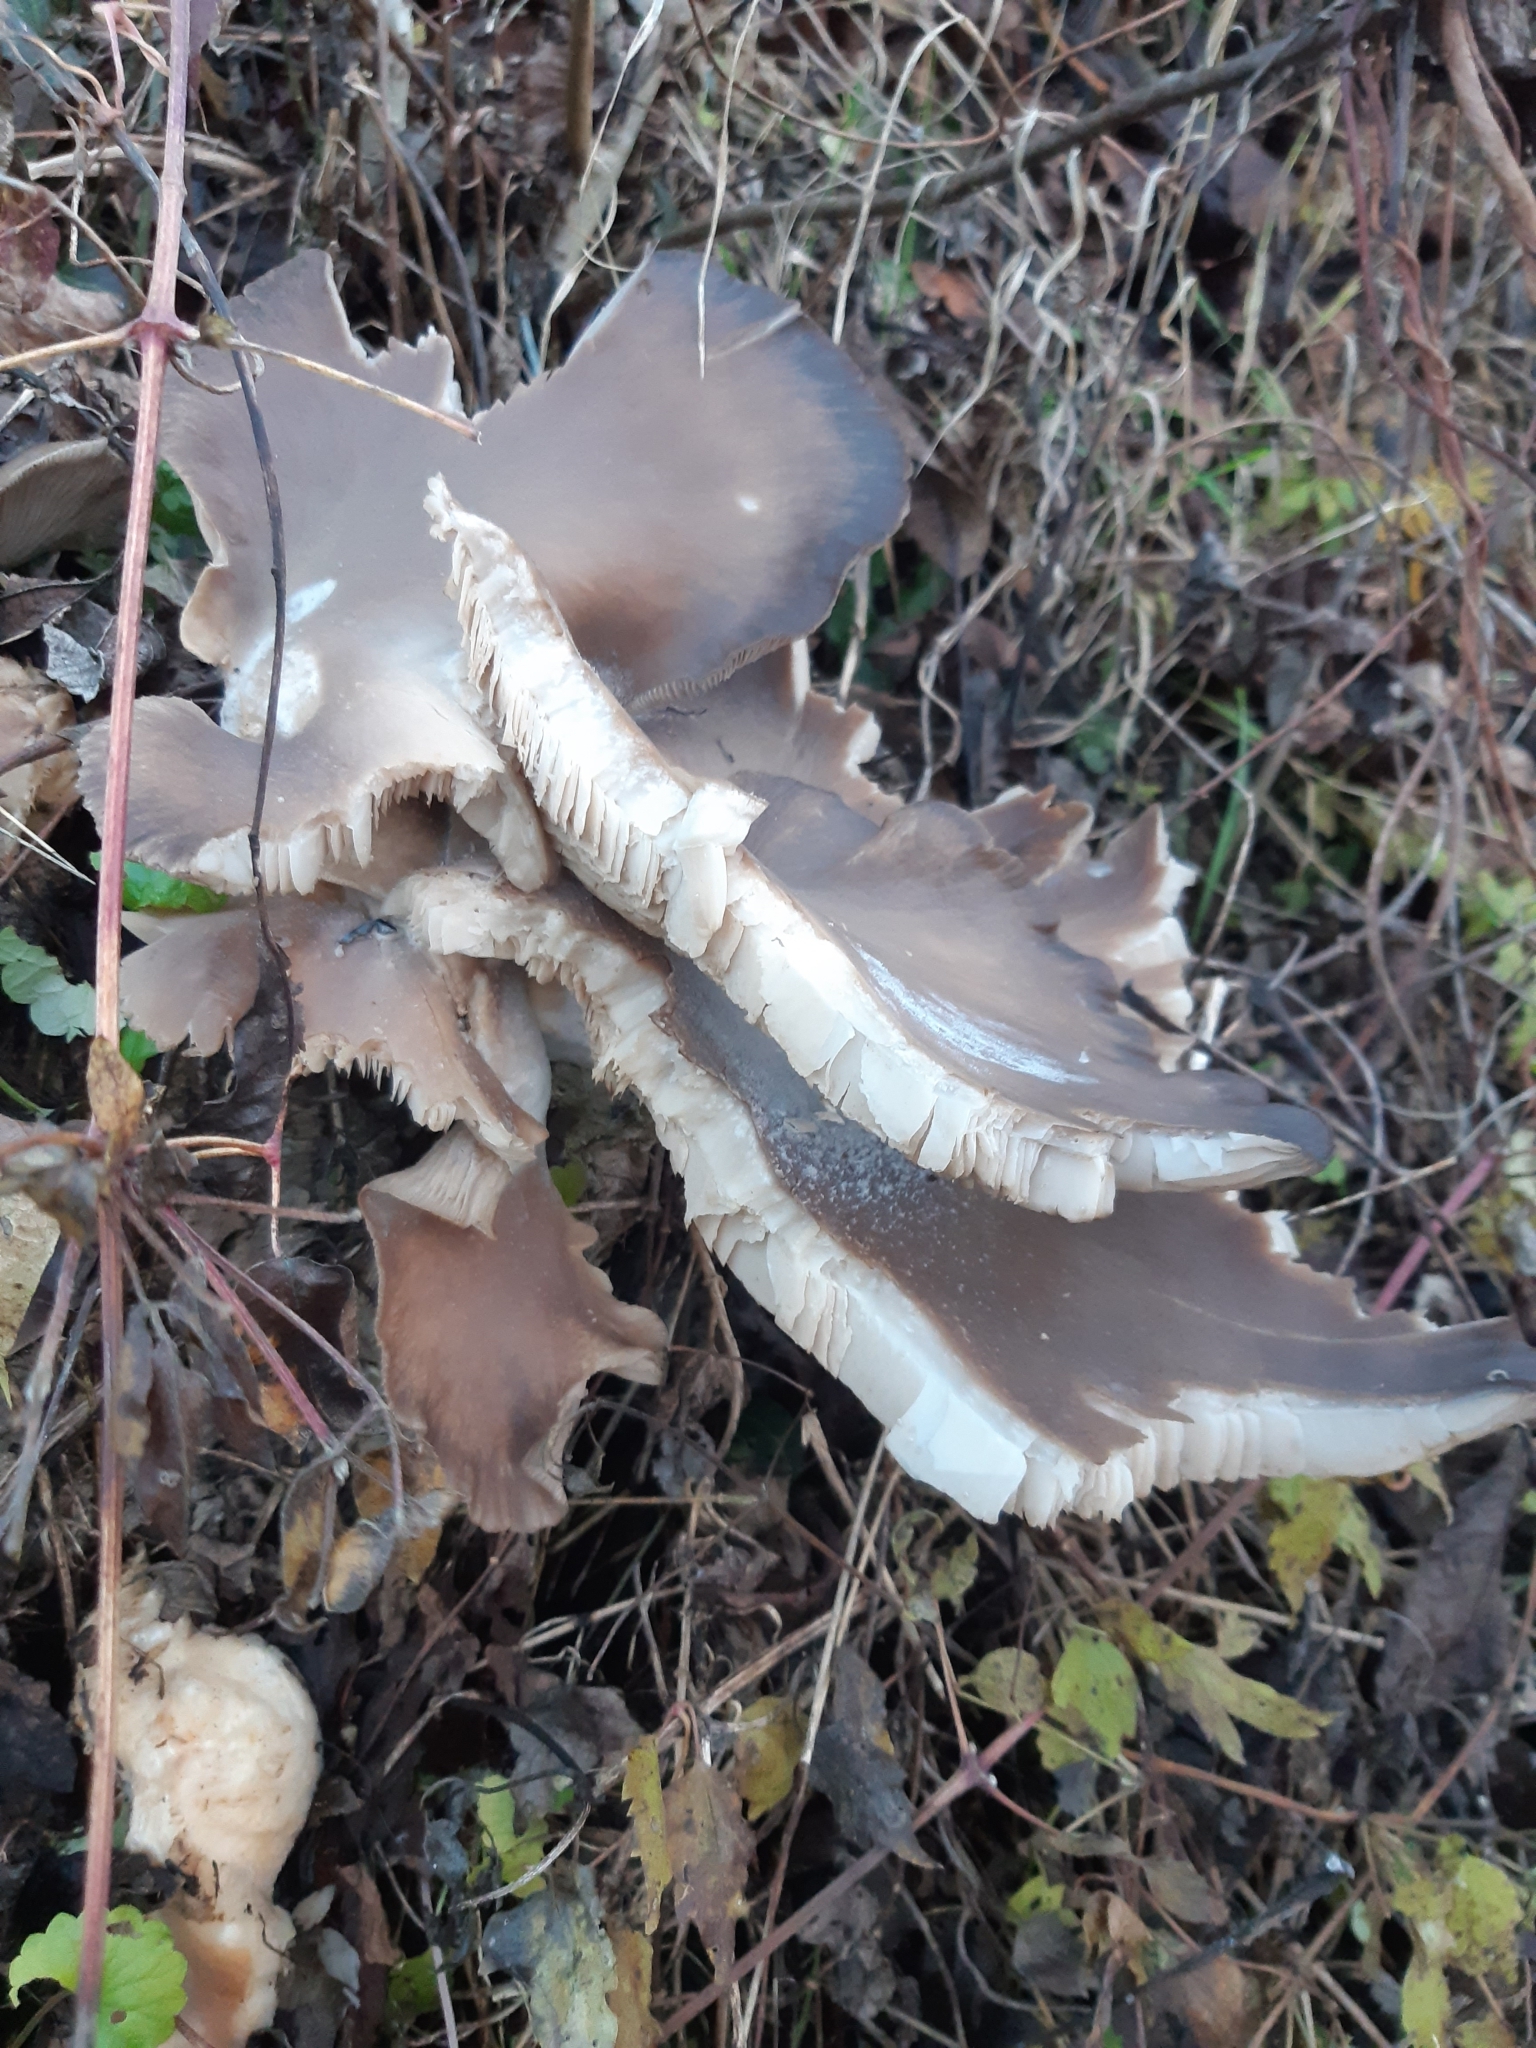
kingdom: Fungi
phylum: Basidiomycota
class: Agaricomycetes
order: Agaricales
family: Pleurotaceae
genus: Pleurotus
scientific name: Pleurotus ostreatus
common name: Oyster mushroom
